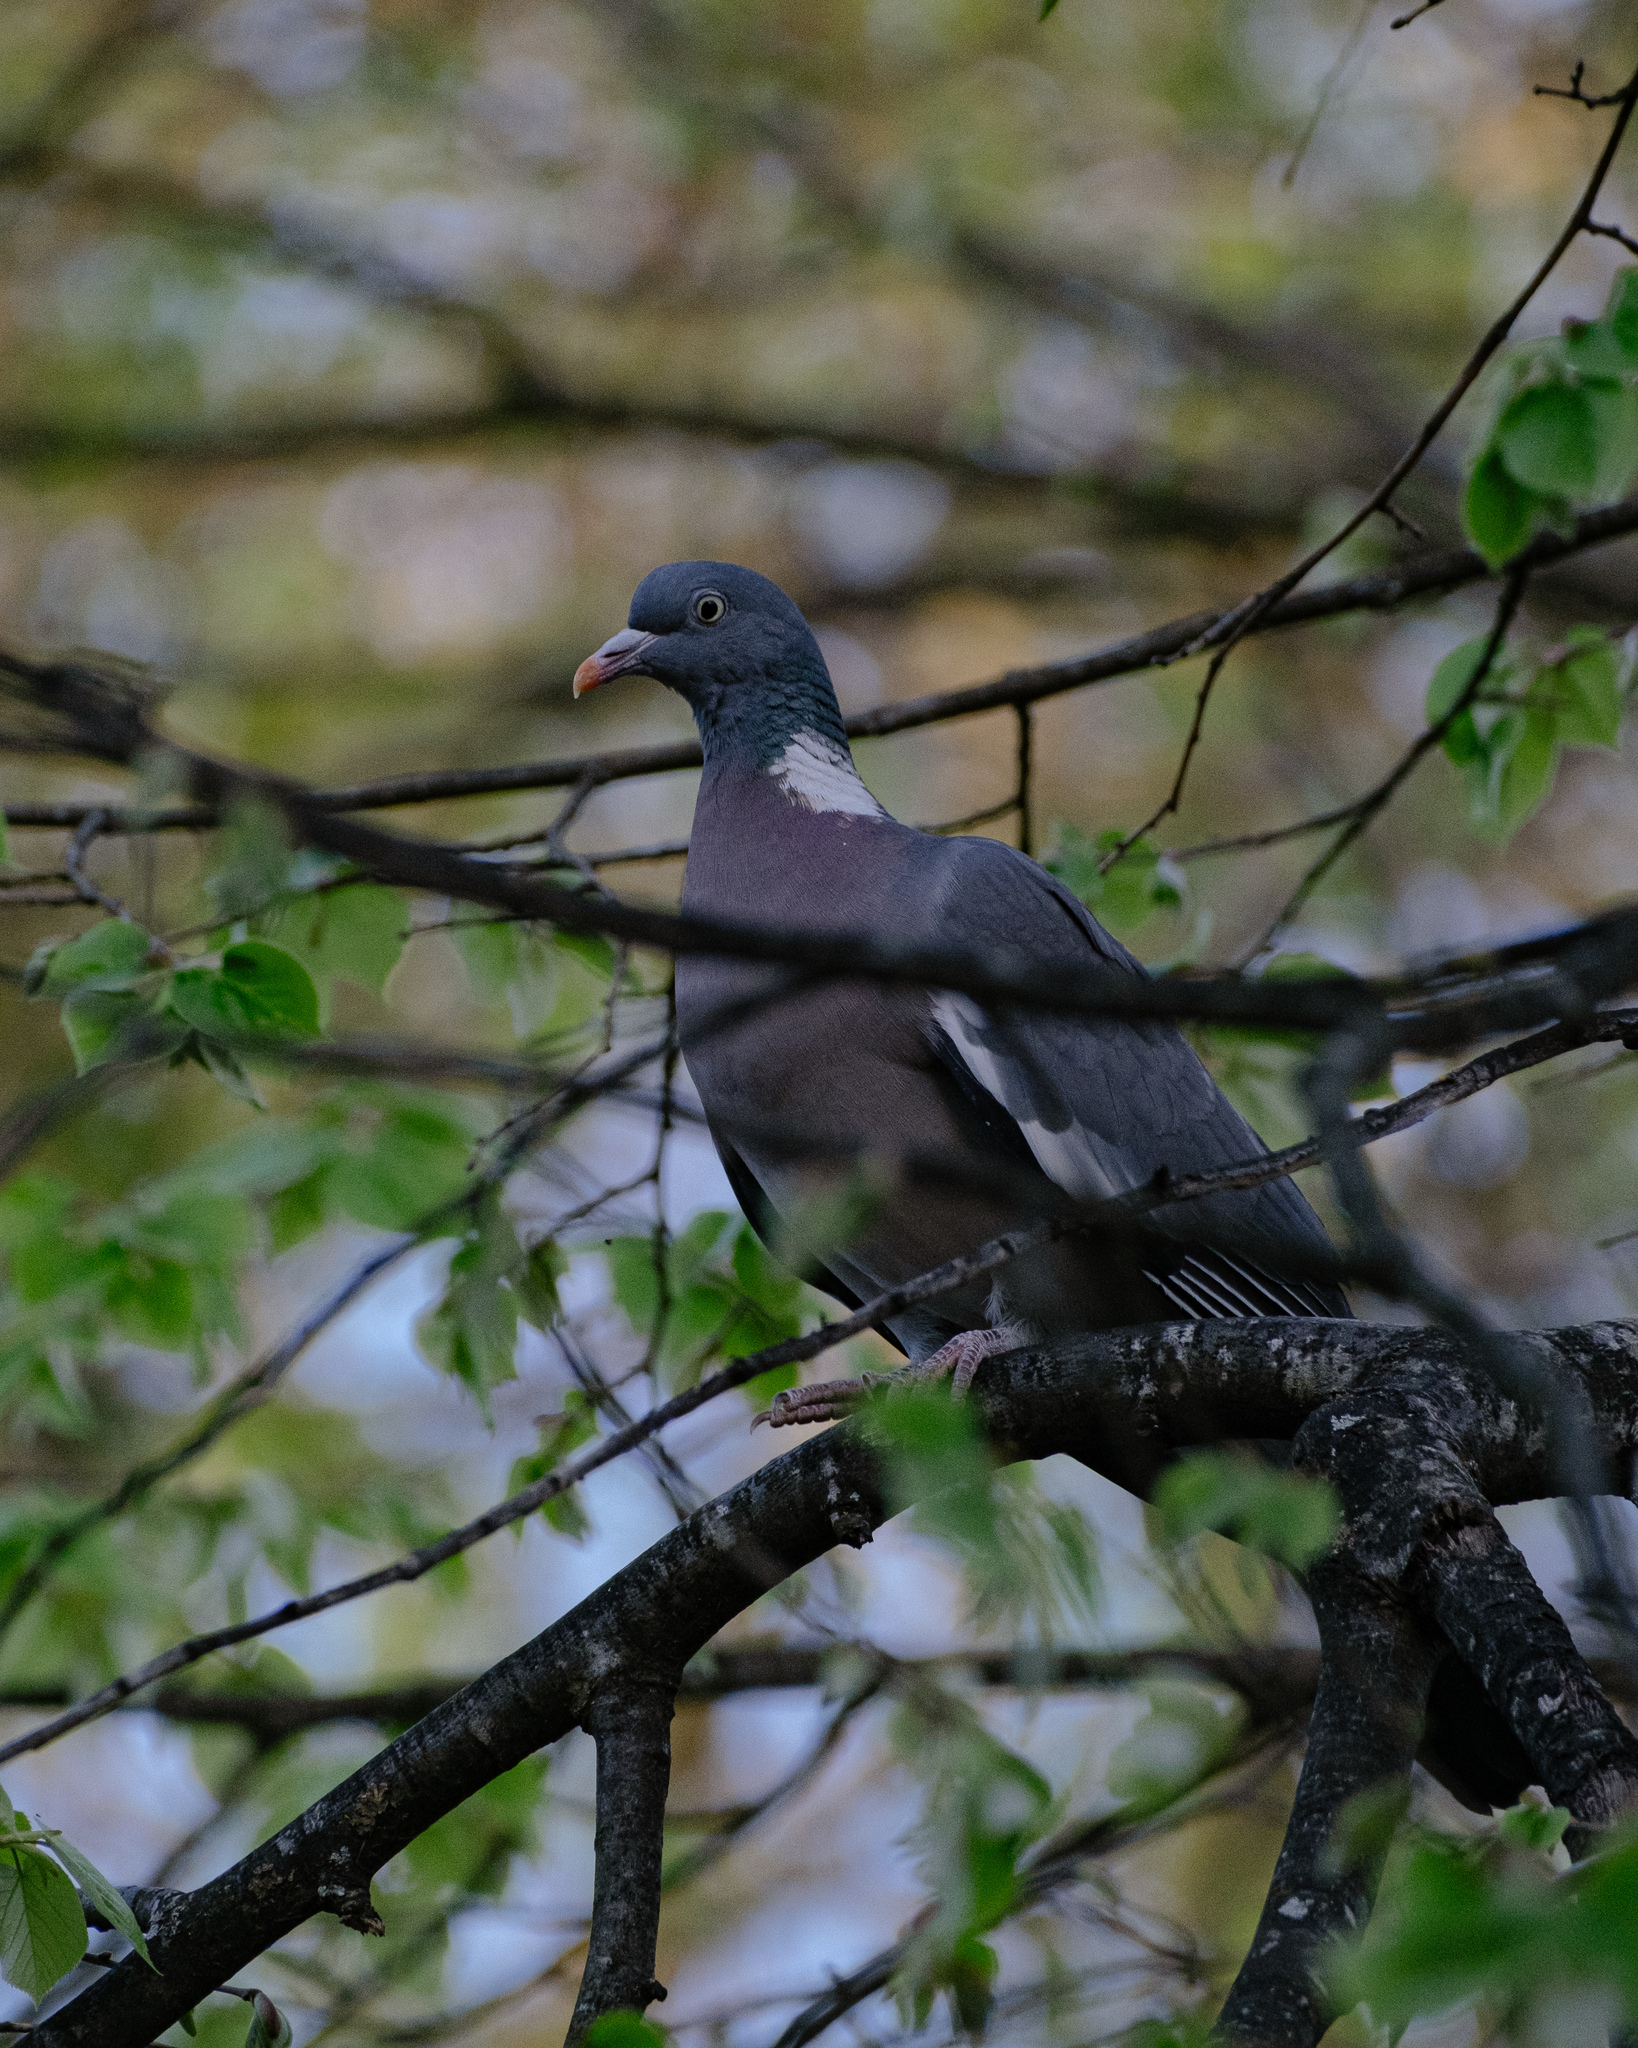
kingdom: Animalia
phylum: Chordata
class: Aves
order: Columbiformes
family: Columbidae
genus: Columba
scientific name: Columba palumbus
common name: Common wood pigeon
